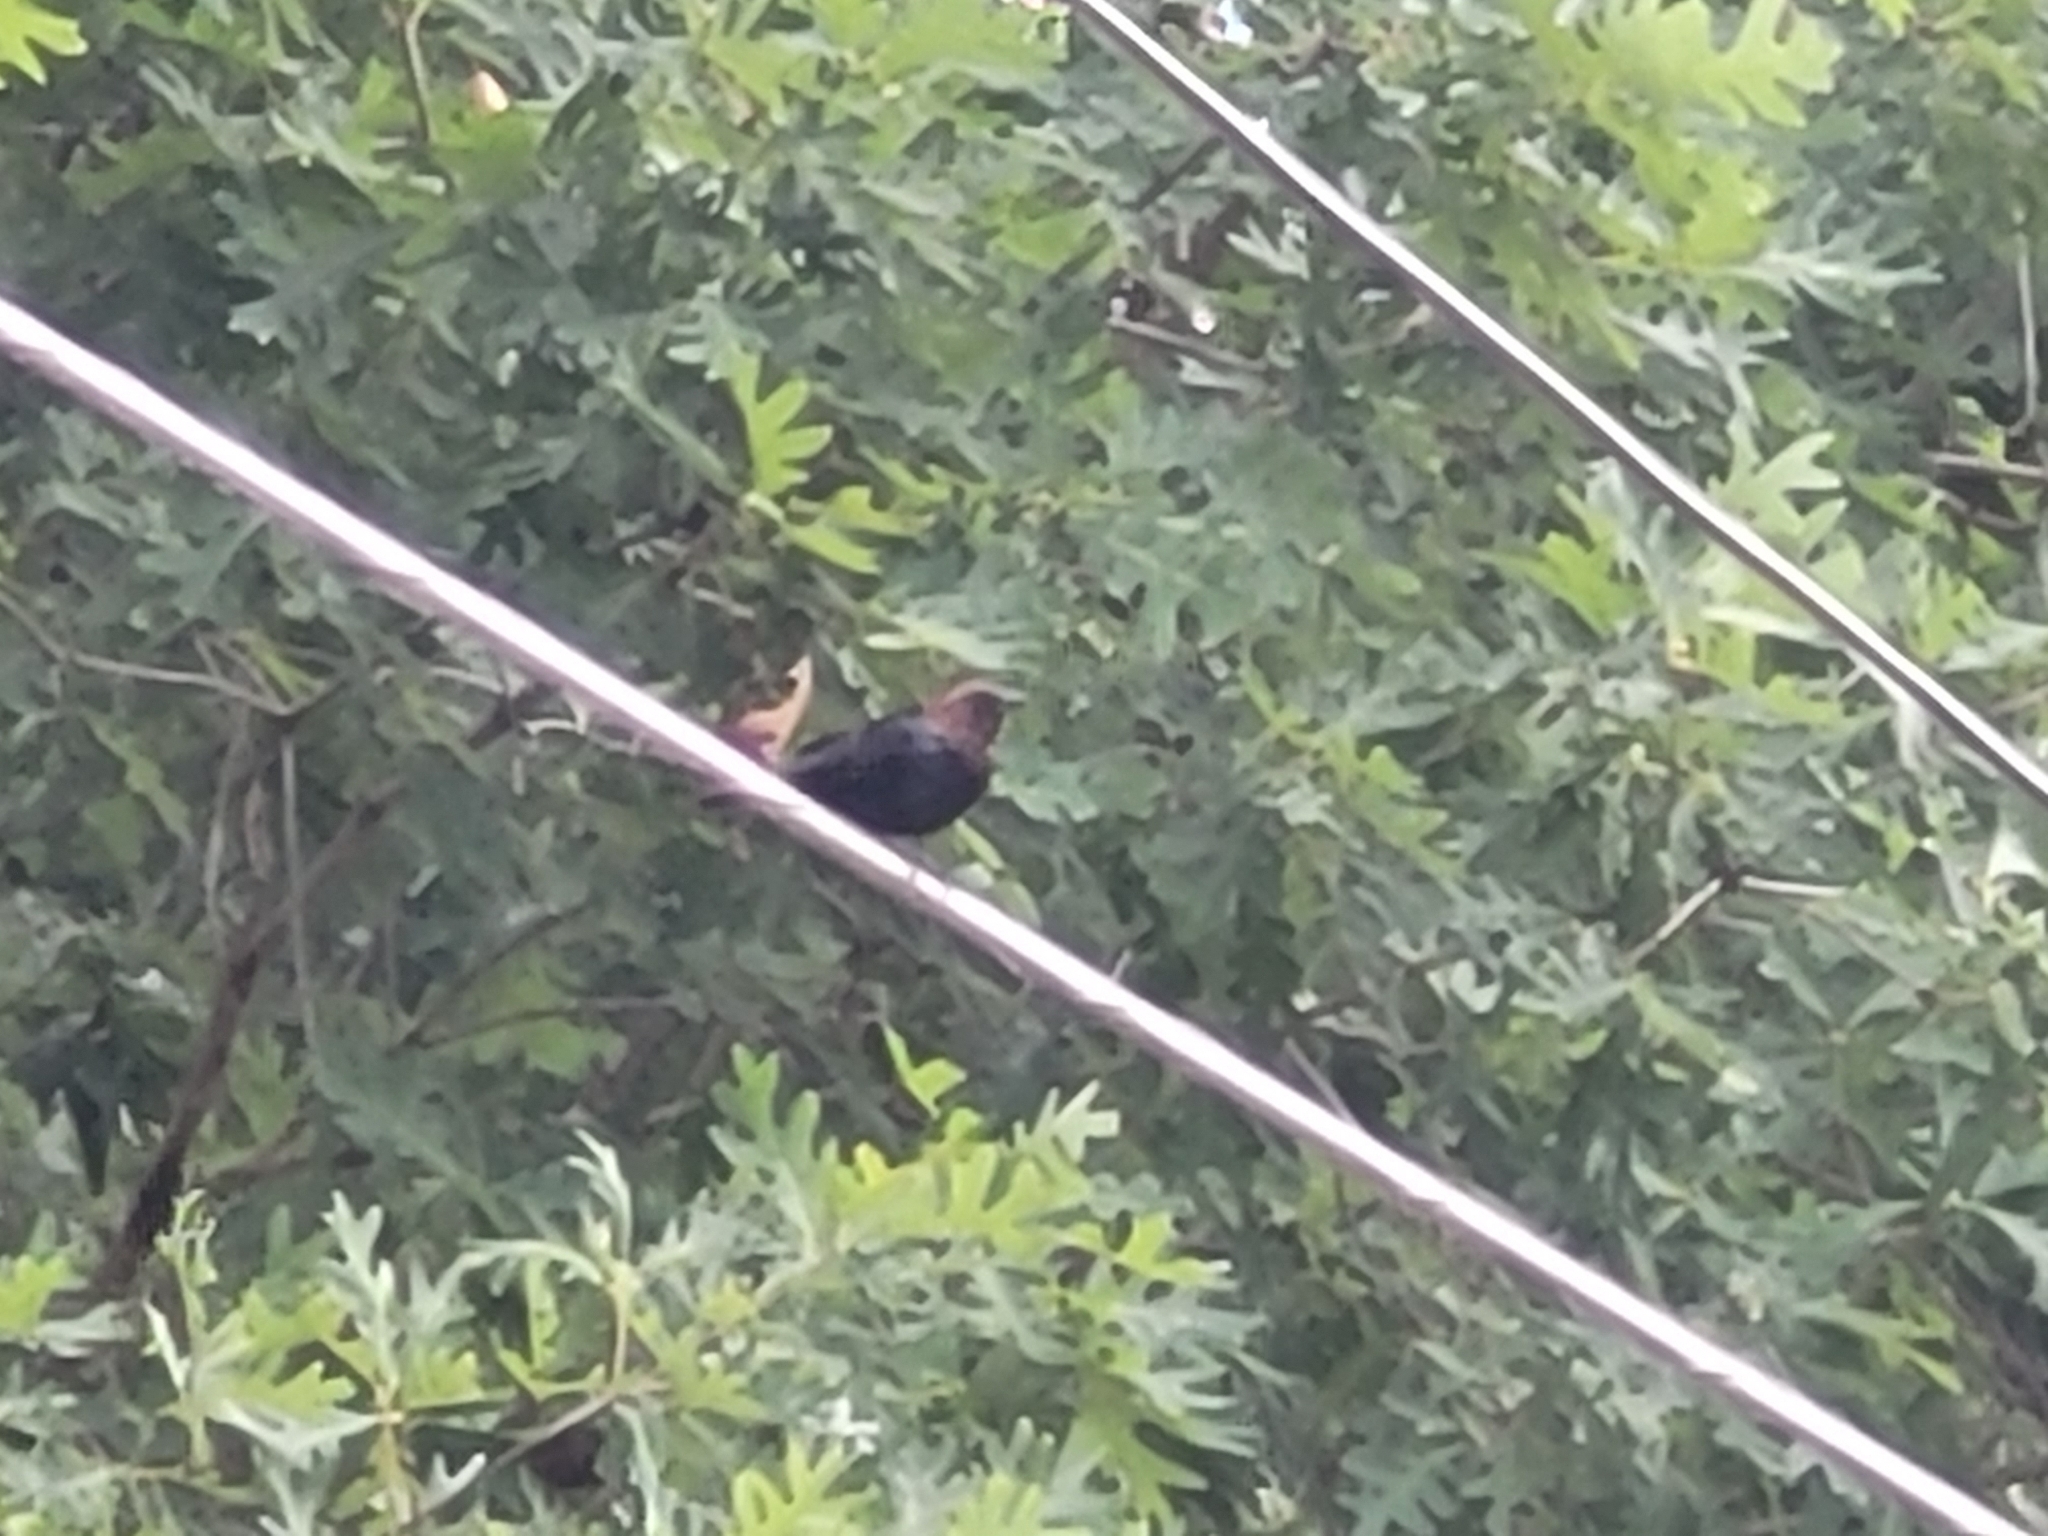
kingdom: Animalia
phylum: Chordata
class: Aves
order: Passeriformes
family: Icteridae
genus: Molothrus
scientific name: Molothrus ater
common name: Brown-headed cowbird
